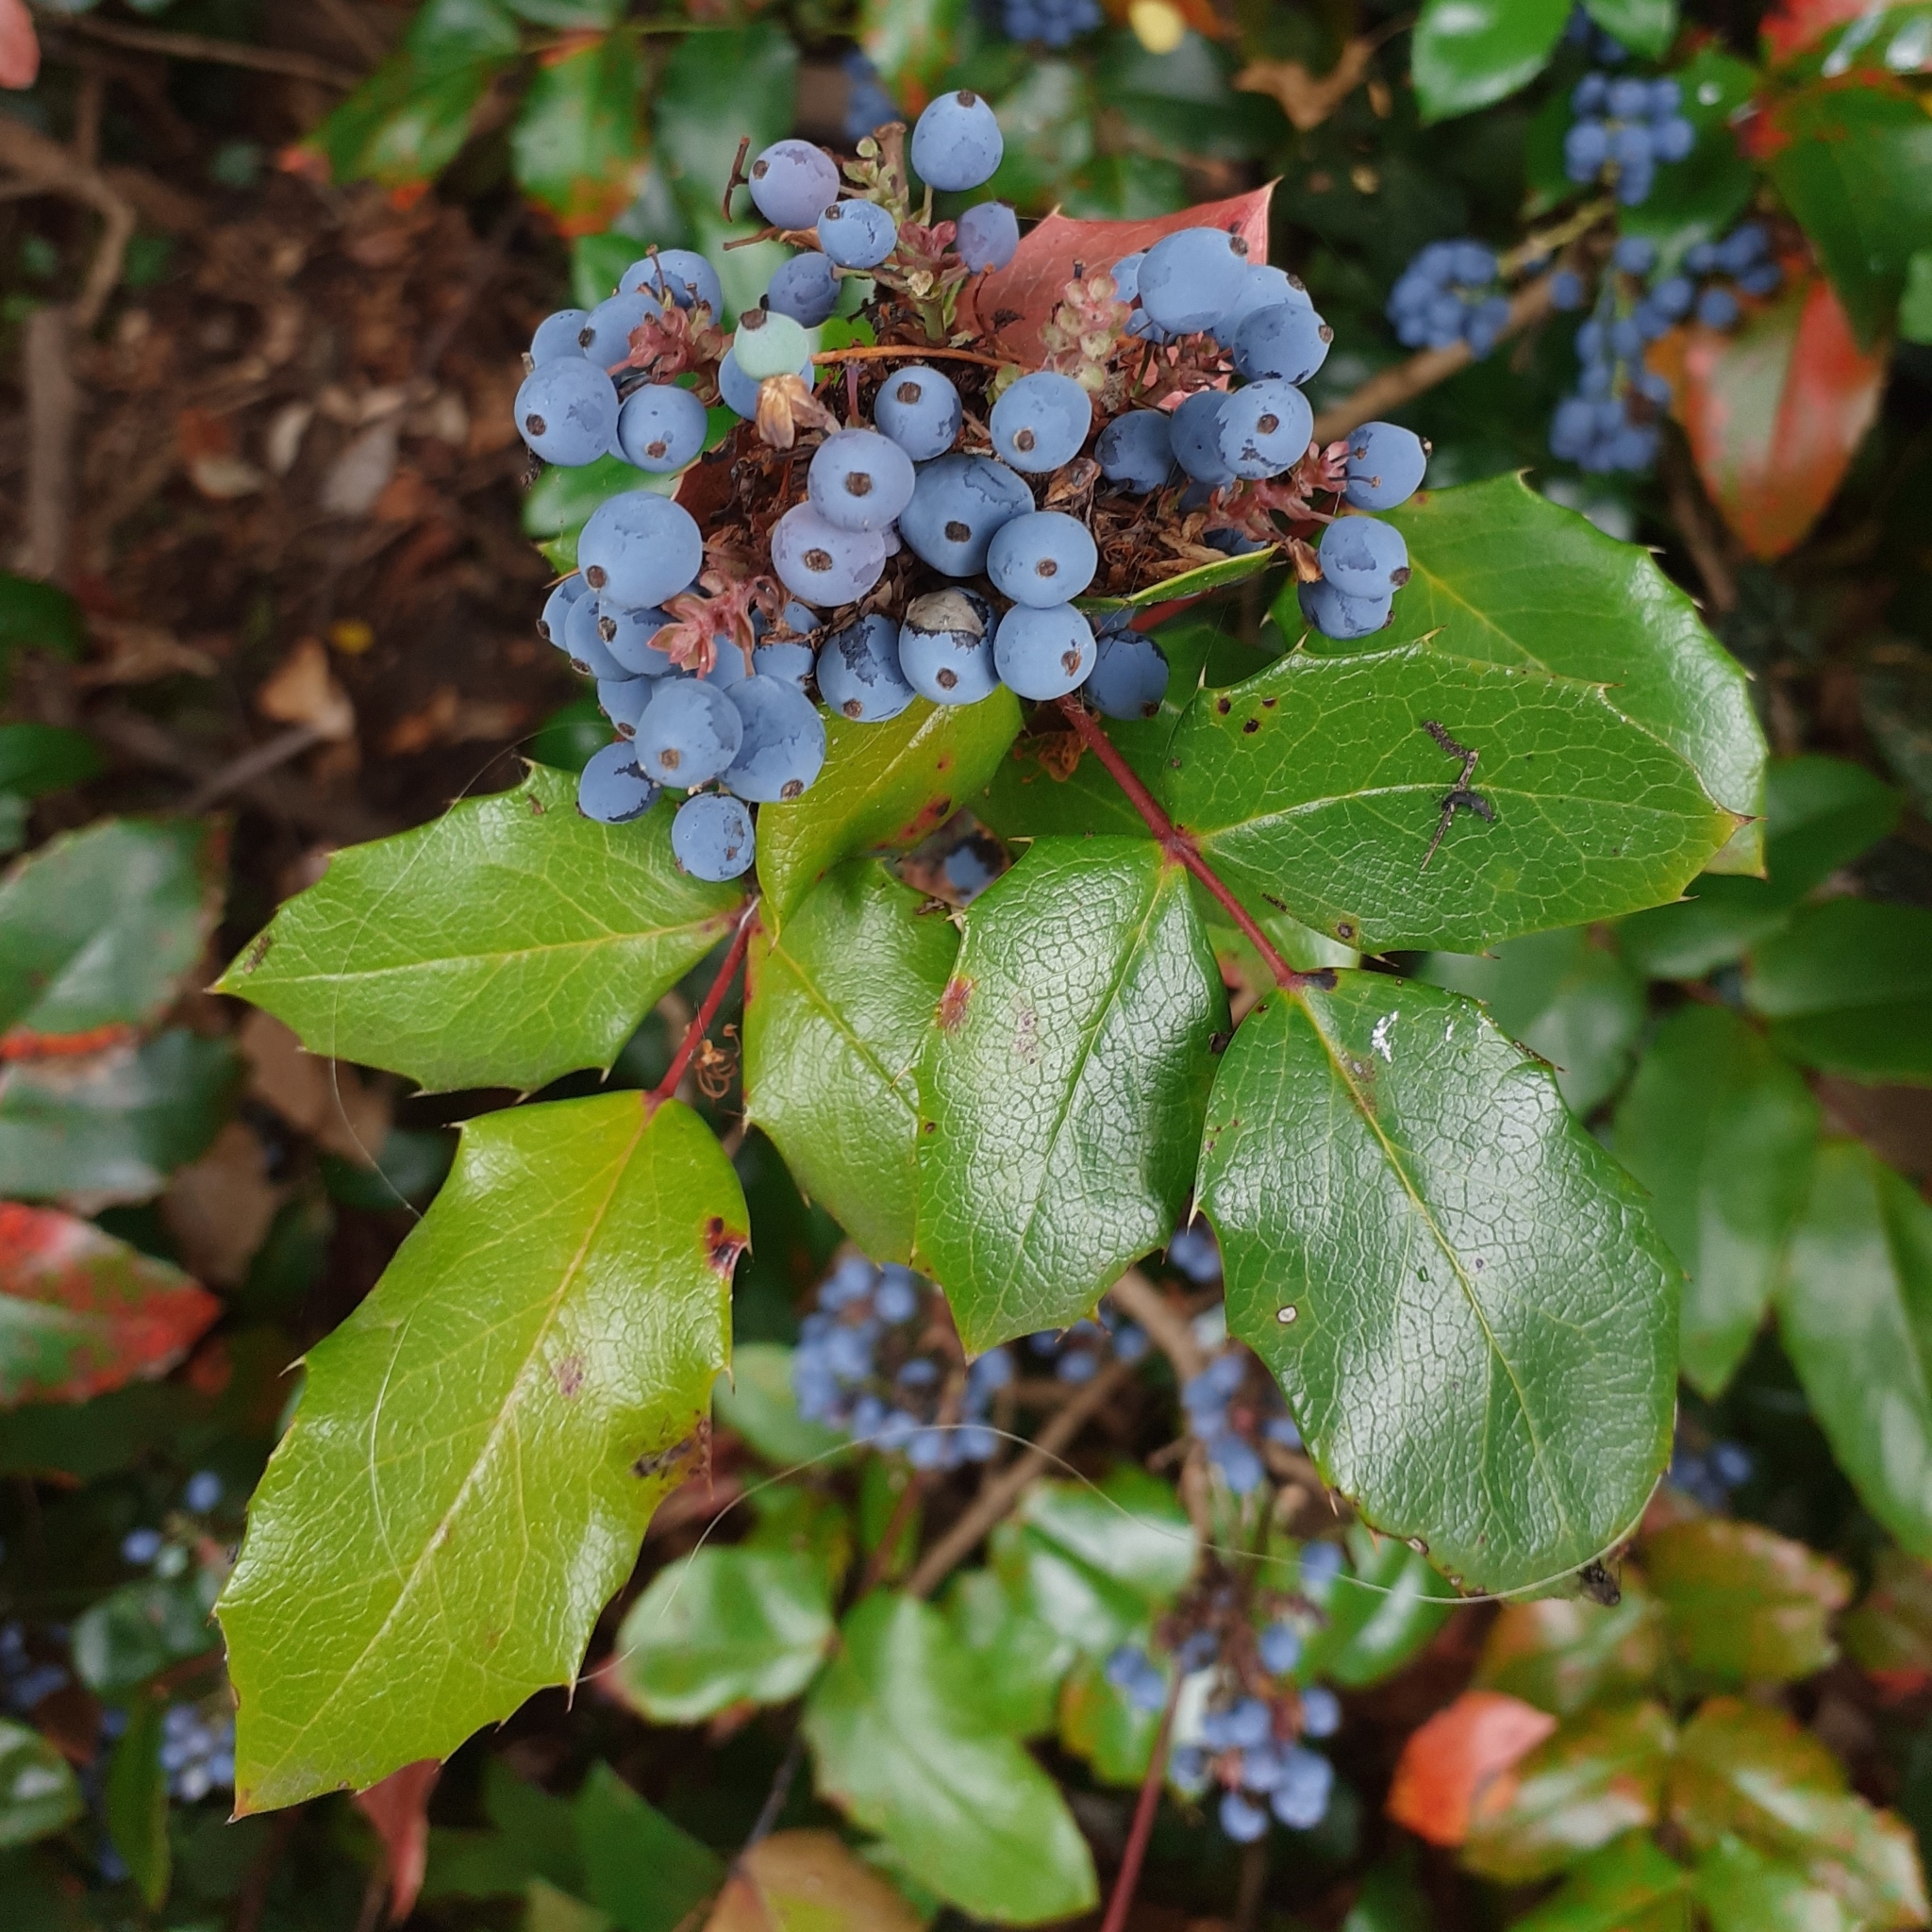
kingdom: Plantae
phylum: Tracheophyta
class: Magnoliopsida
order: Ranunculales
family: Berberidaceae
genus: Mahonia
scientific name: Mahonia aquifolium
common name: Oregon-grape
